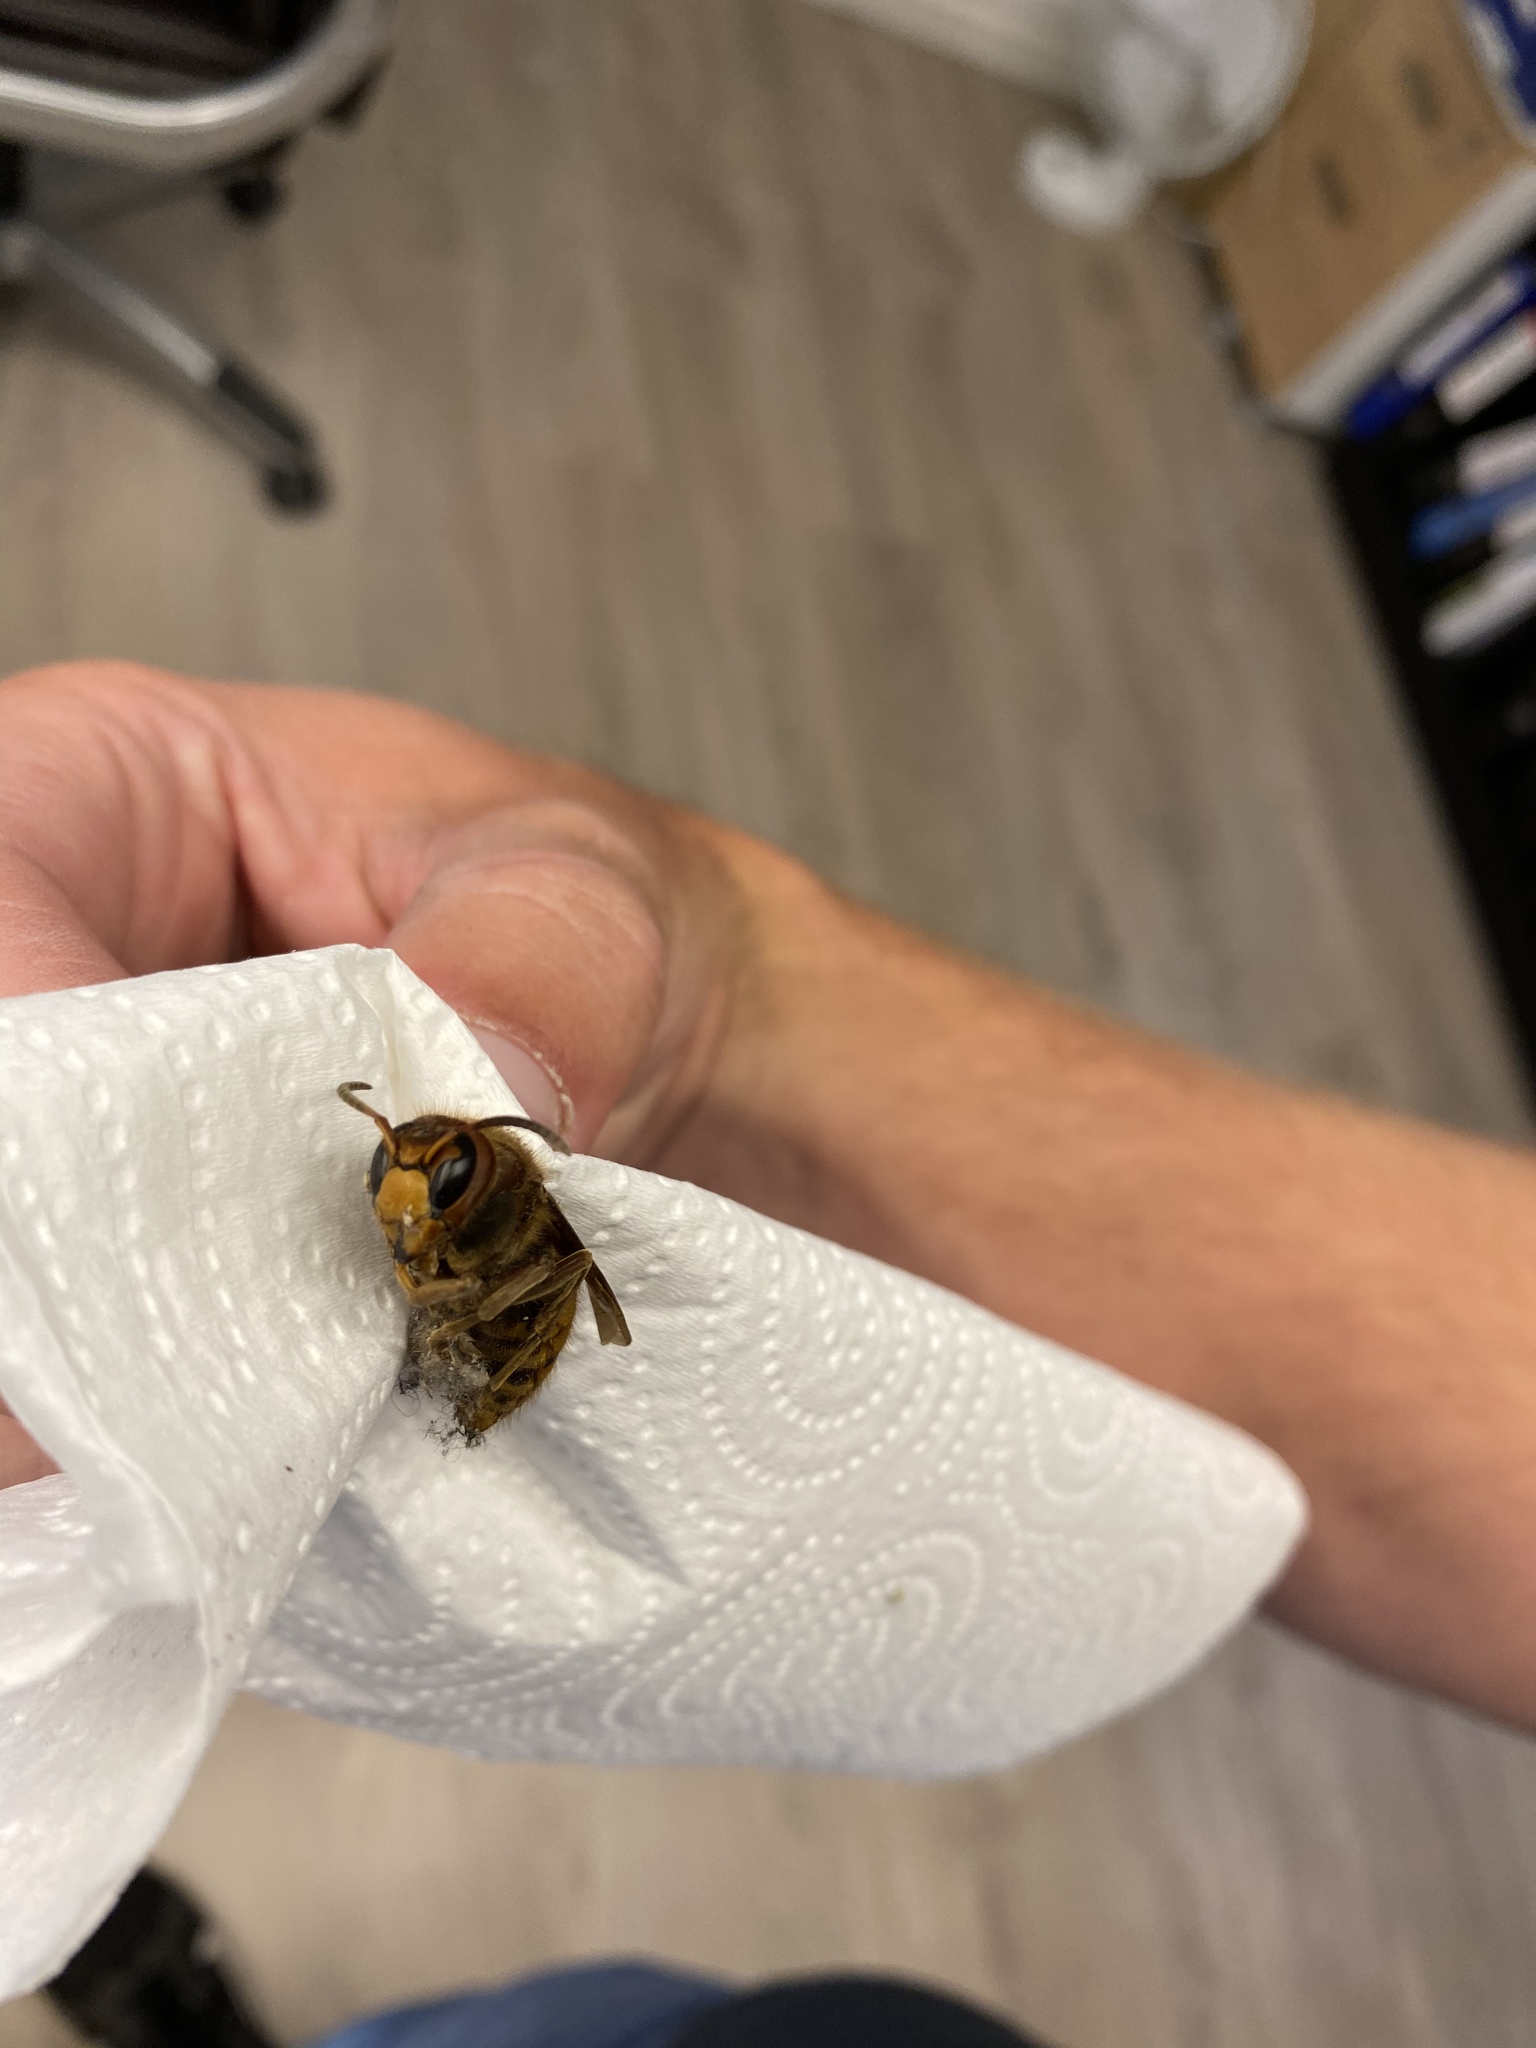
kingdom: Animalia
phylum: Arthropoda
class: Insecta
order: Hymenoptera
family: Vespidae
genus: Vespa
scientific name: Vespa crabro
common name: Hornet
